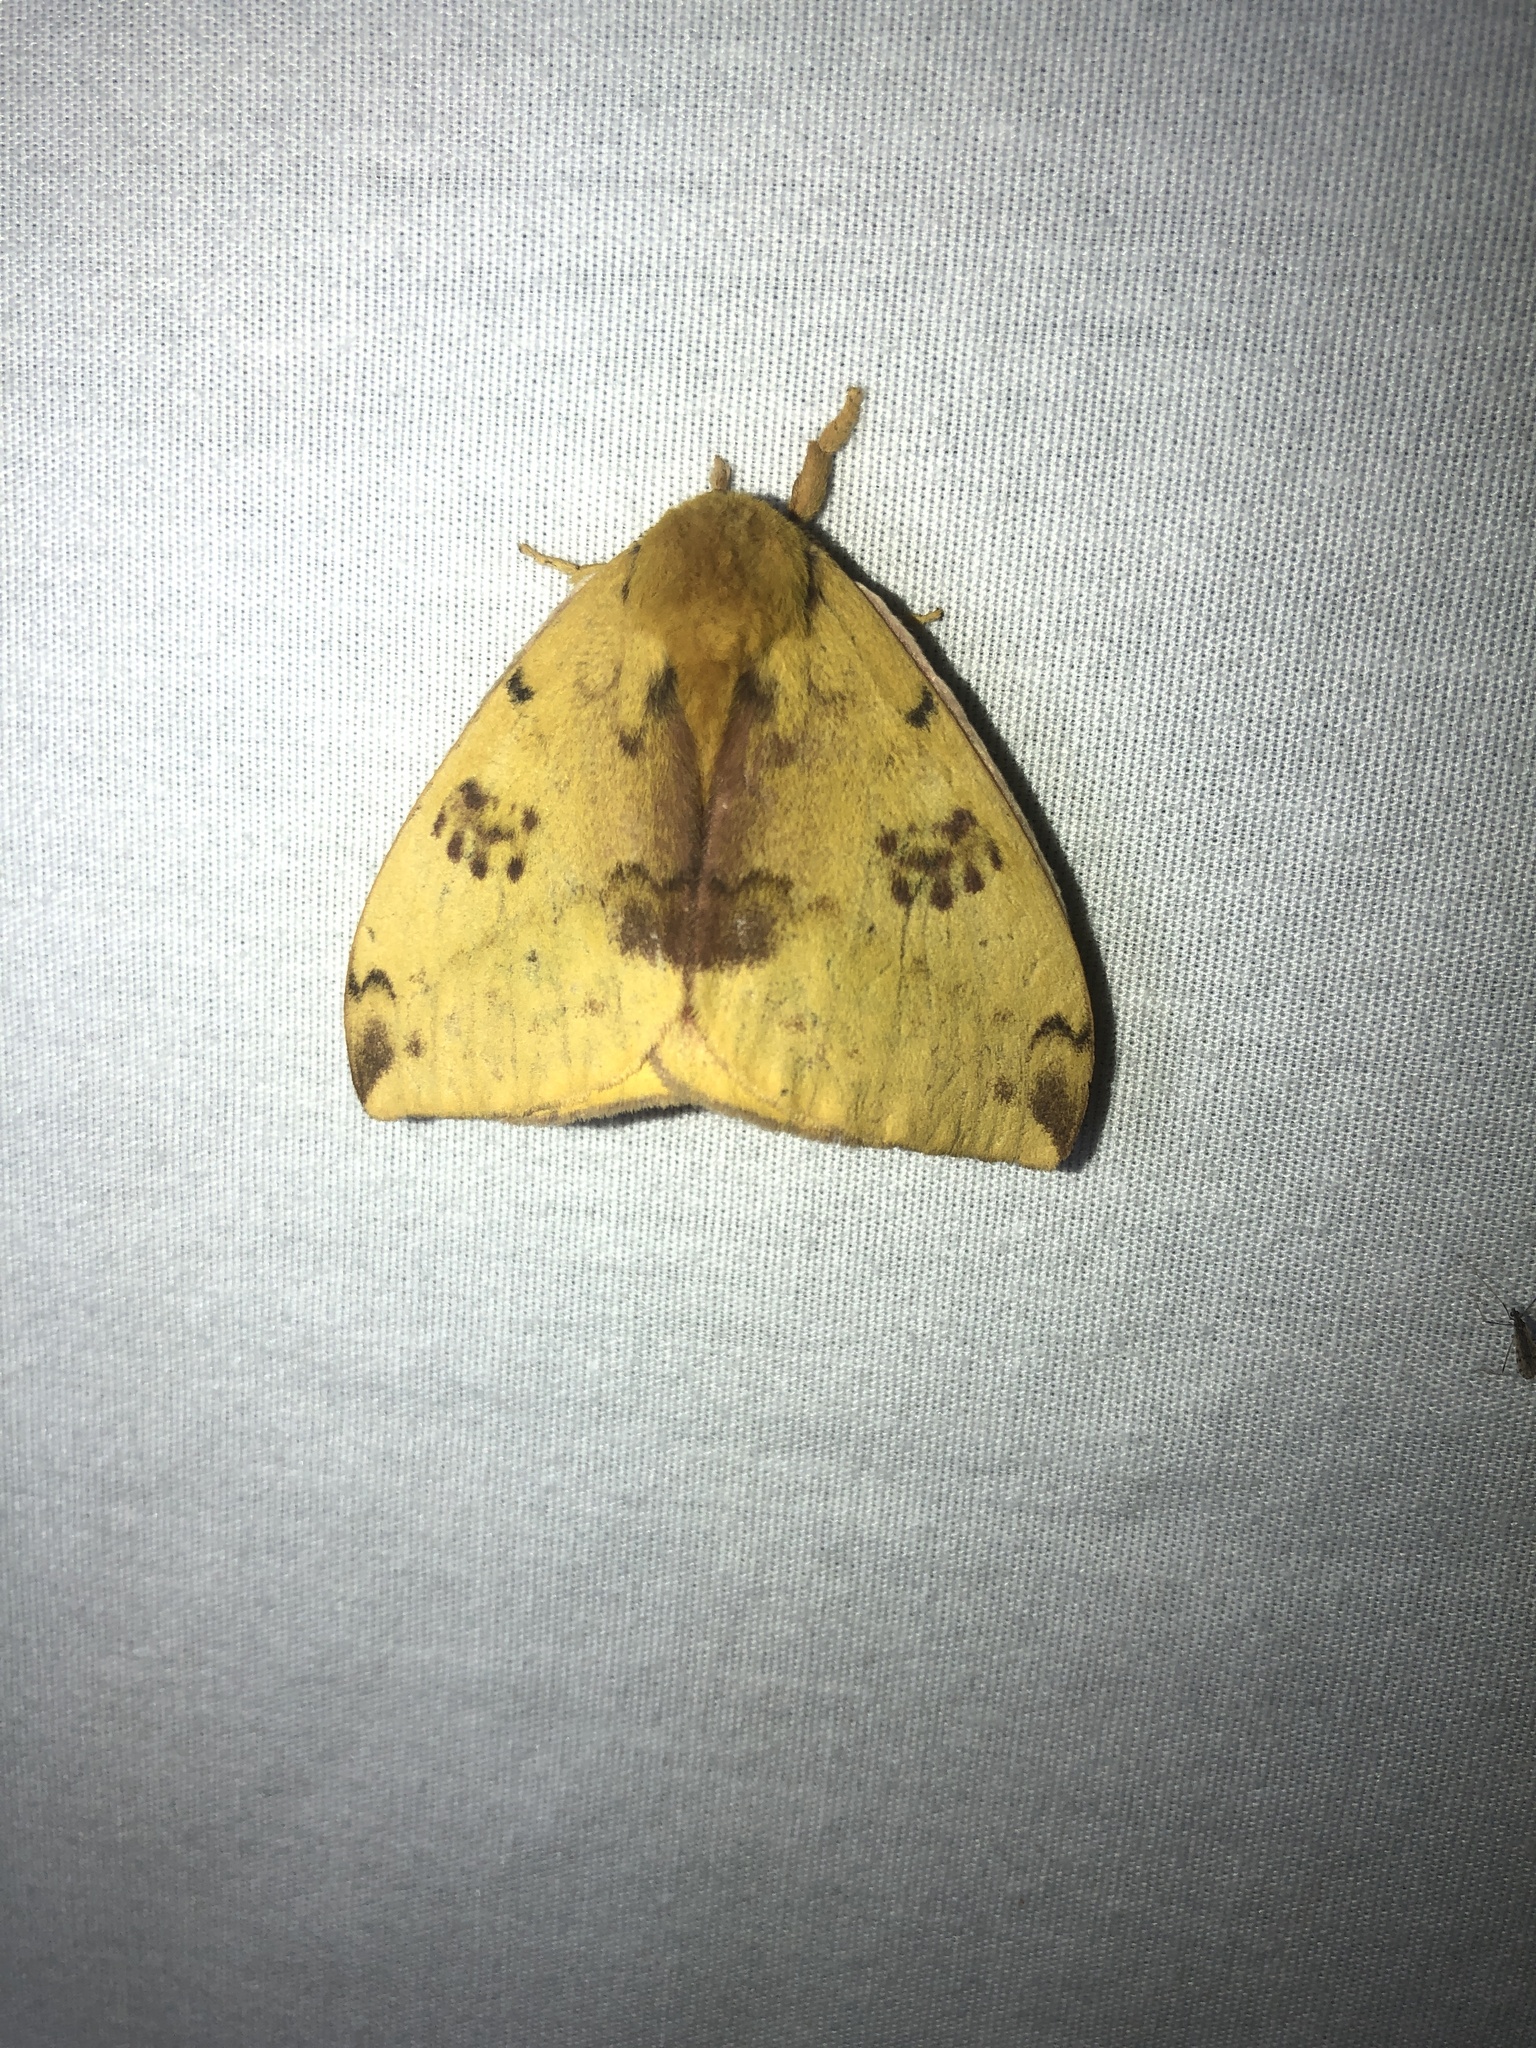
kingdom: Animalia
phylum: Arthropoda
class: Insecta
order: Lepidoptera
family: Saturniidae
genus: Automeris
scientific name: Automeris io
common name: Io moth
